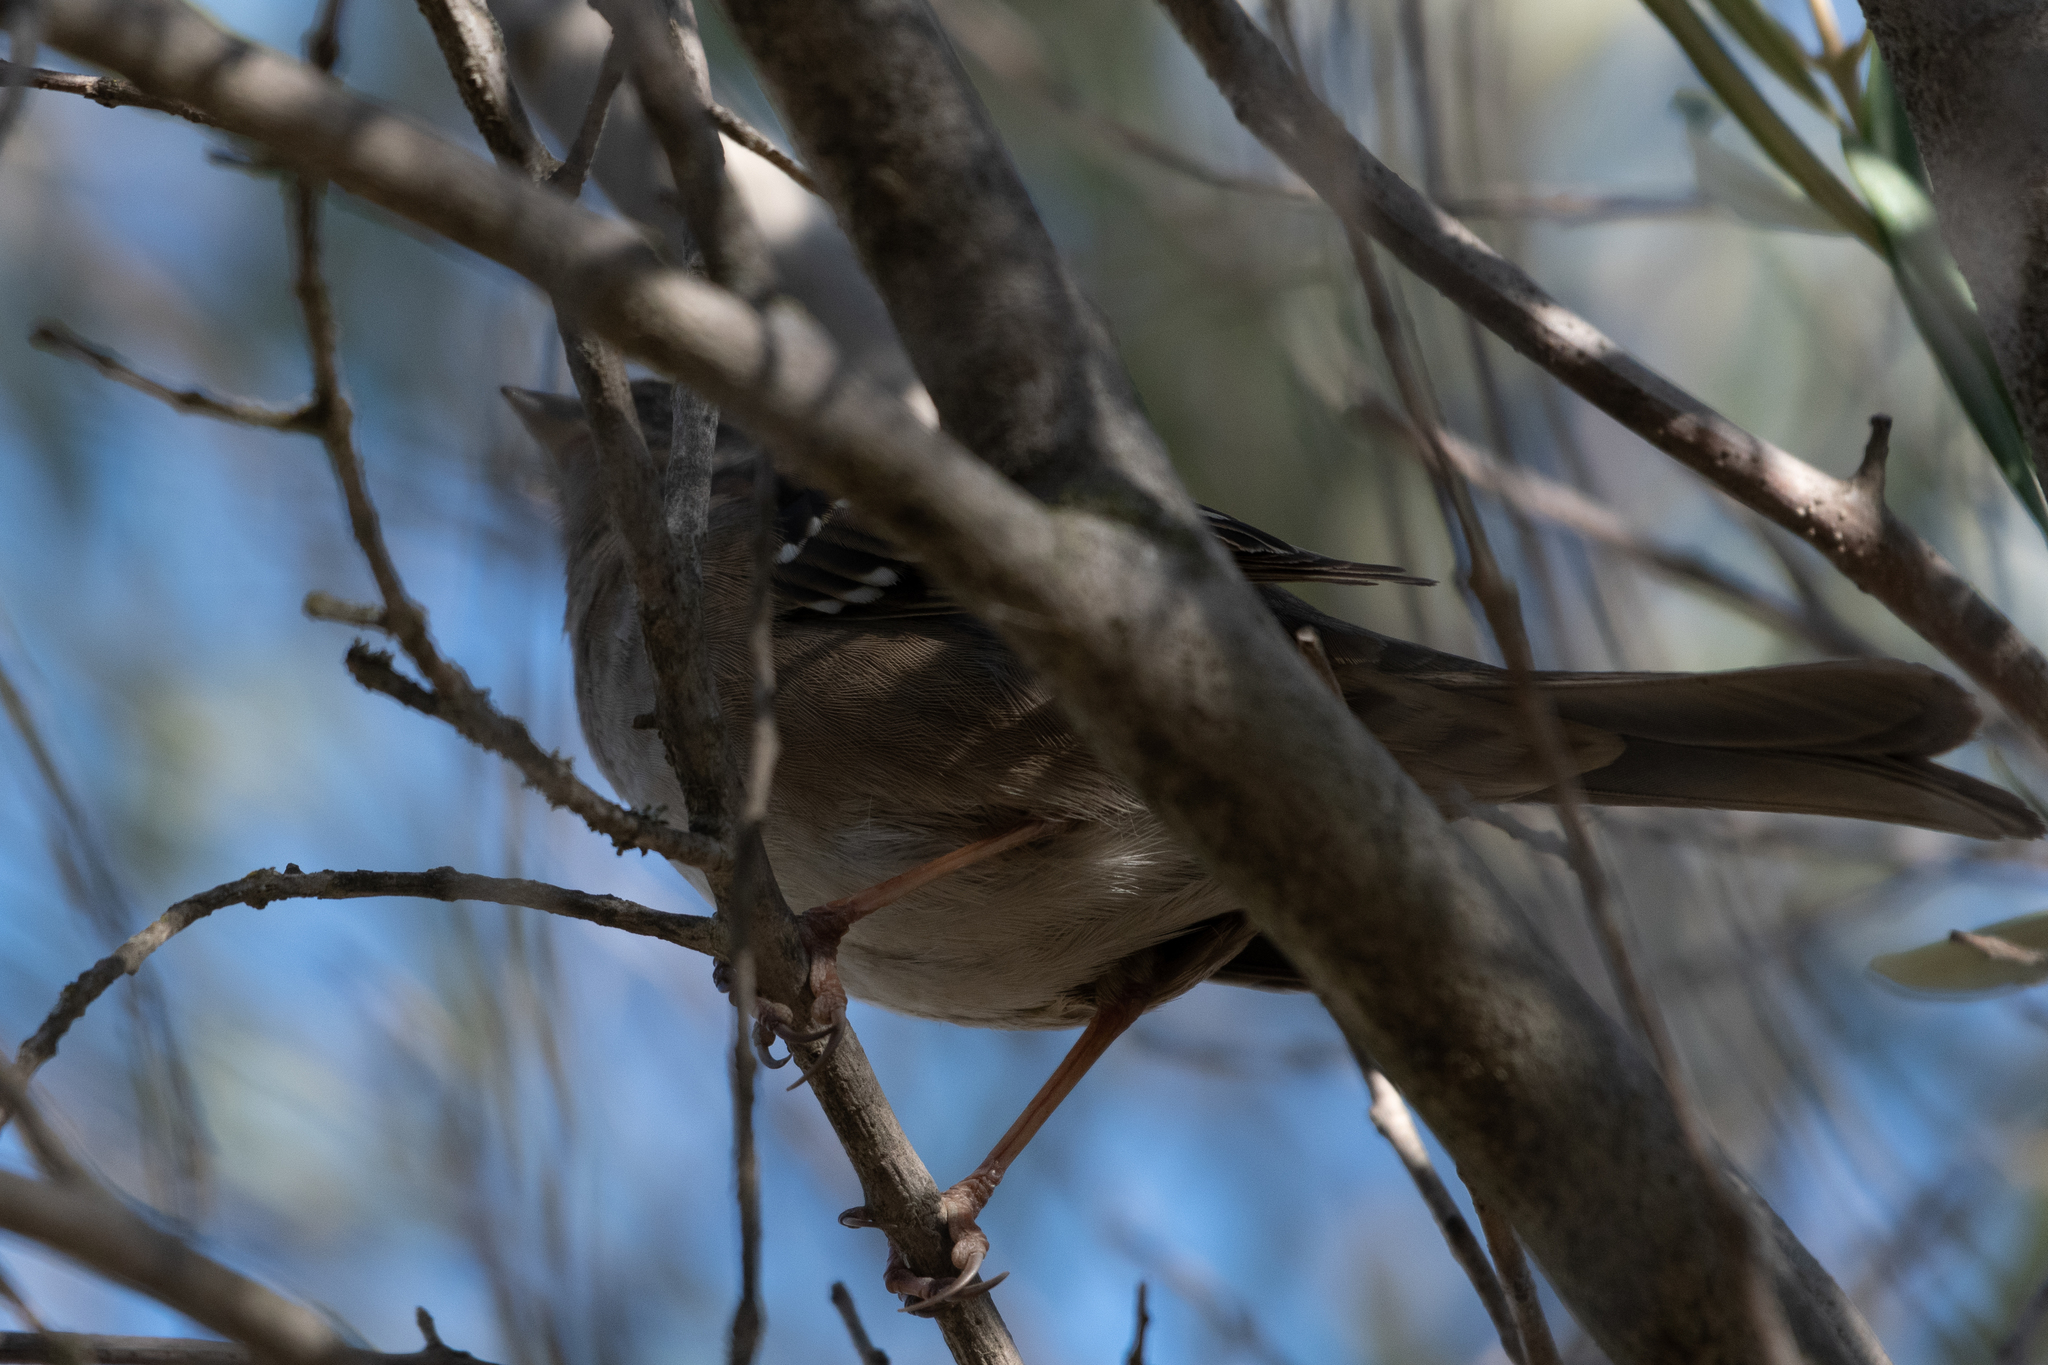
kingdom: Animalia
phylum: Chordata
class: Aves
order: Passeriformes
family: Passerellidae
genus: Zonotrichia
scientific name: Zonotrichia atricapilla
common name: Golden-crowned sparrow
